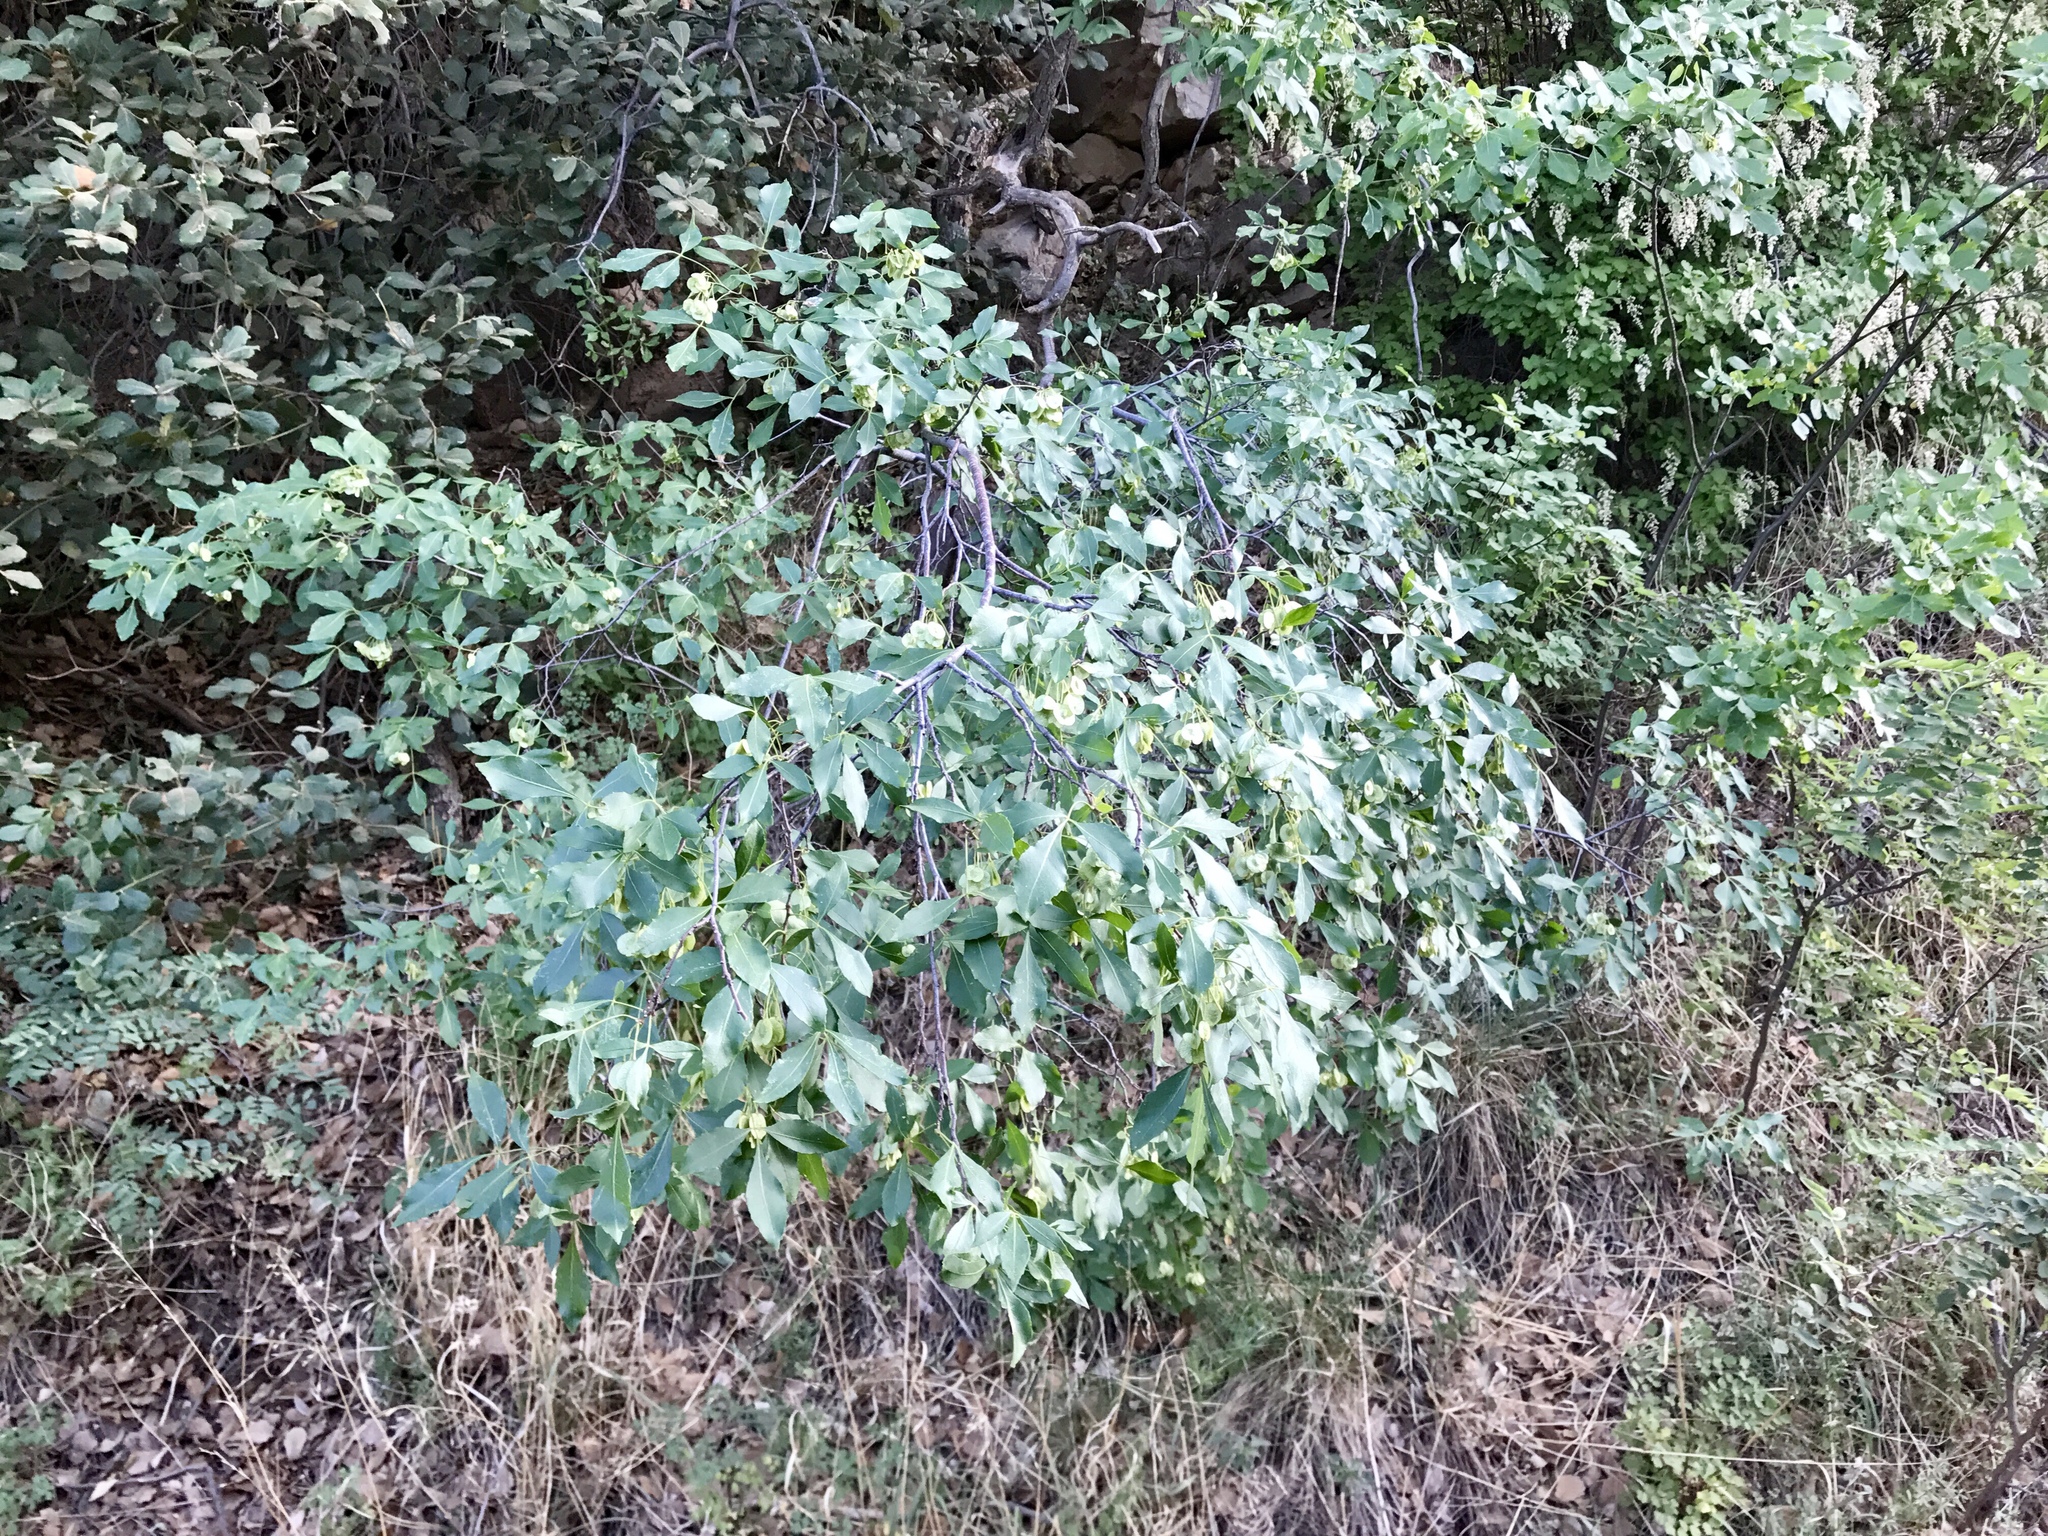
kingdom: Plantae
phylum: Tracheophyta
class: Magnoliopsida
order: Lamiales
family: Oleaceae
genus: Fraxinus
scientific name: Fraxinus velutina
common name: Arizon ash
